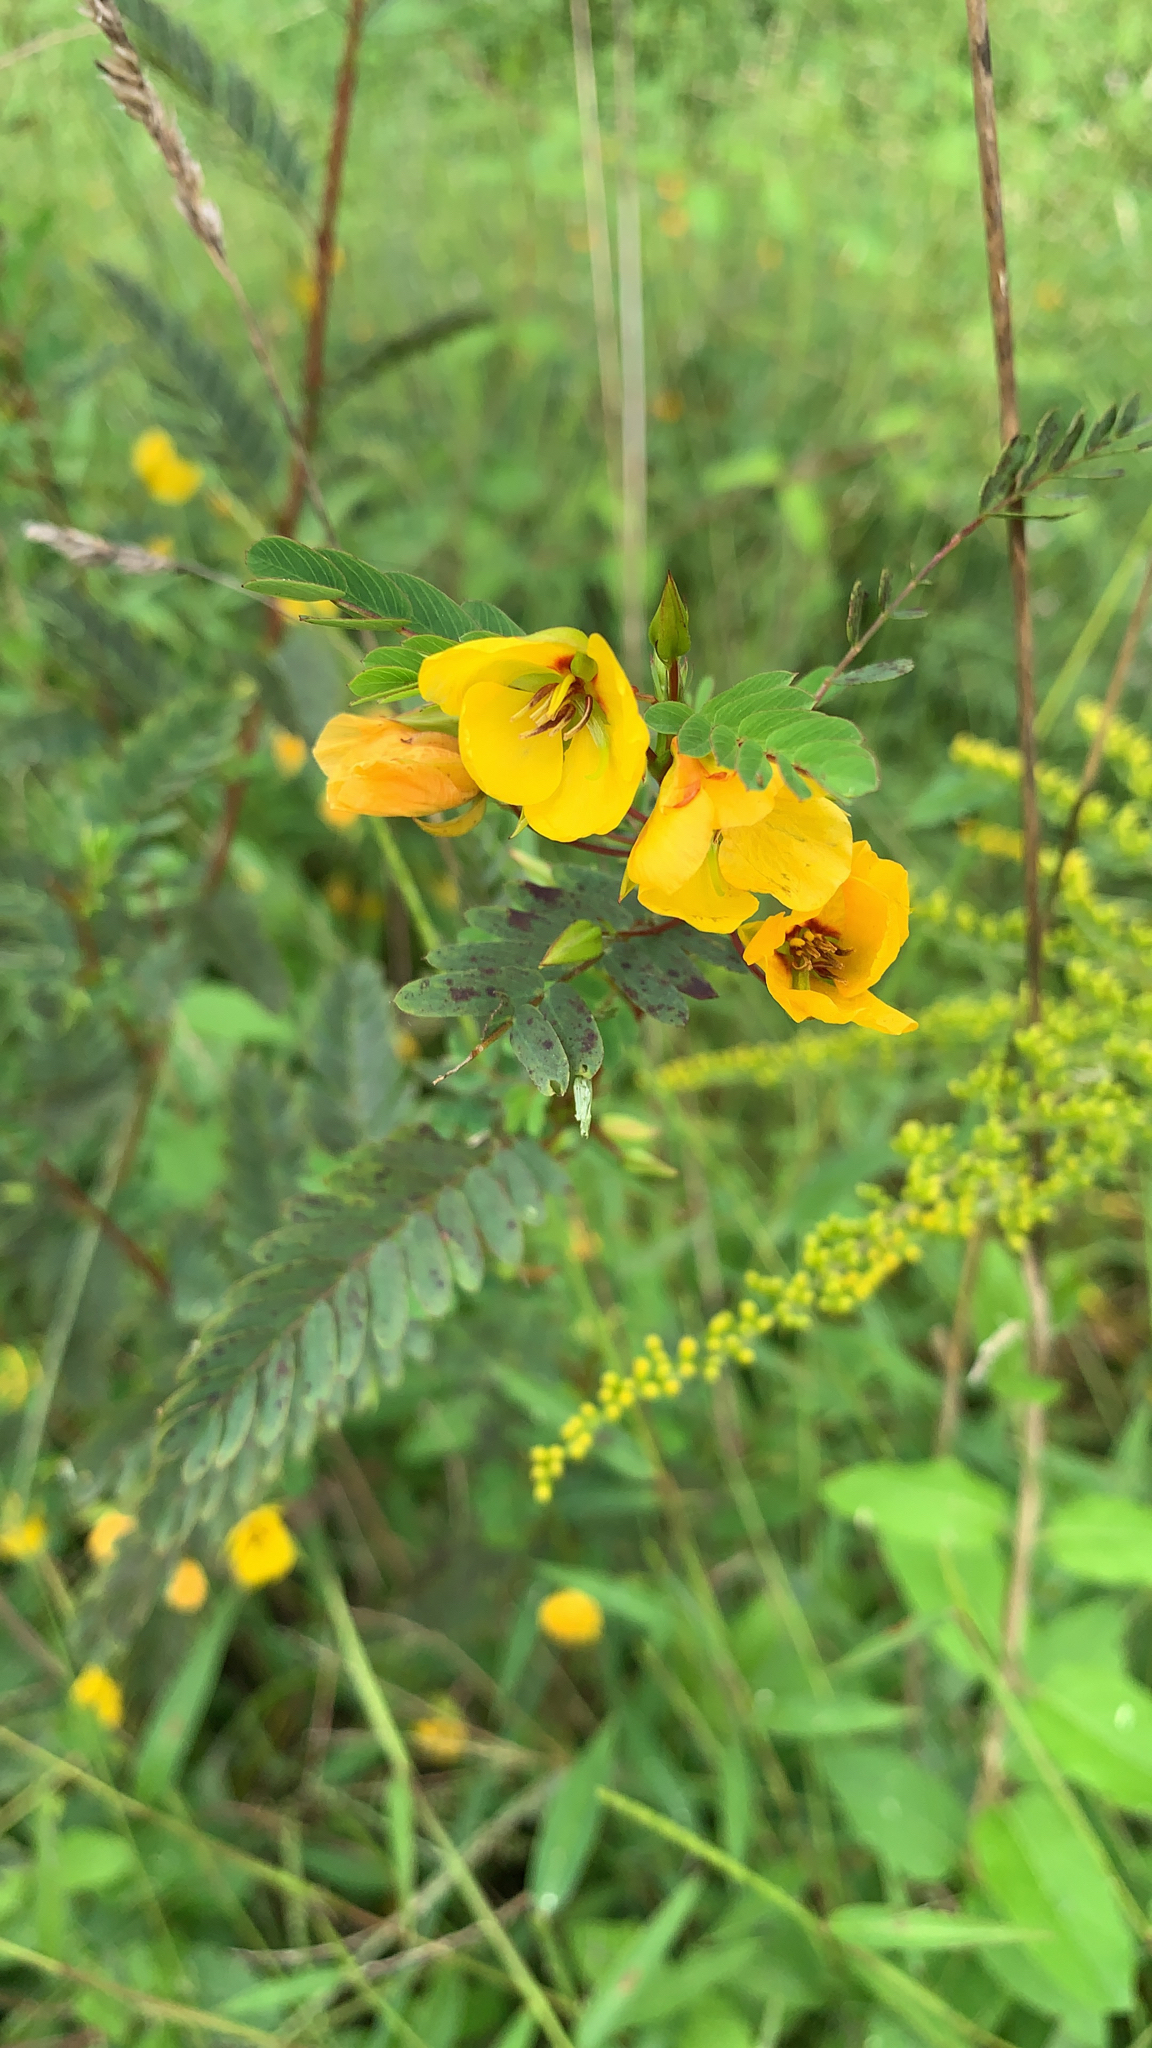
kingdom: Plantae
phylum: Tracheophyta
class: Magnoliopsida
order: Fabales
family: Fabaceae
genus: Chamaecrista
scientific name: Chamaecrista fasciculata
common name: Golden cassia
